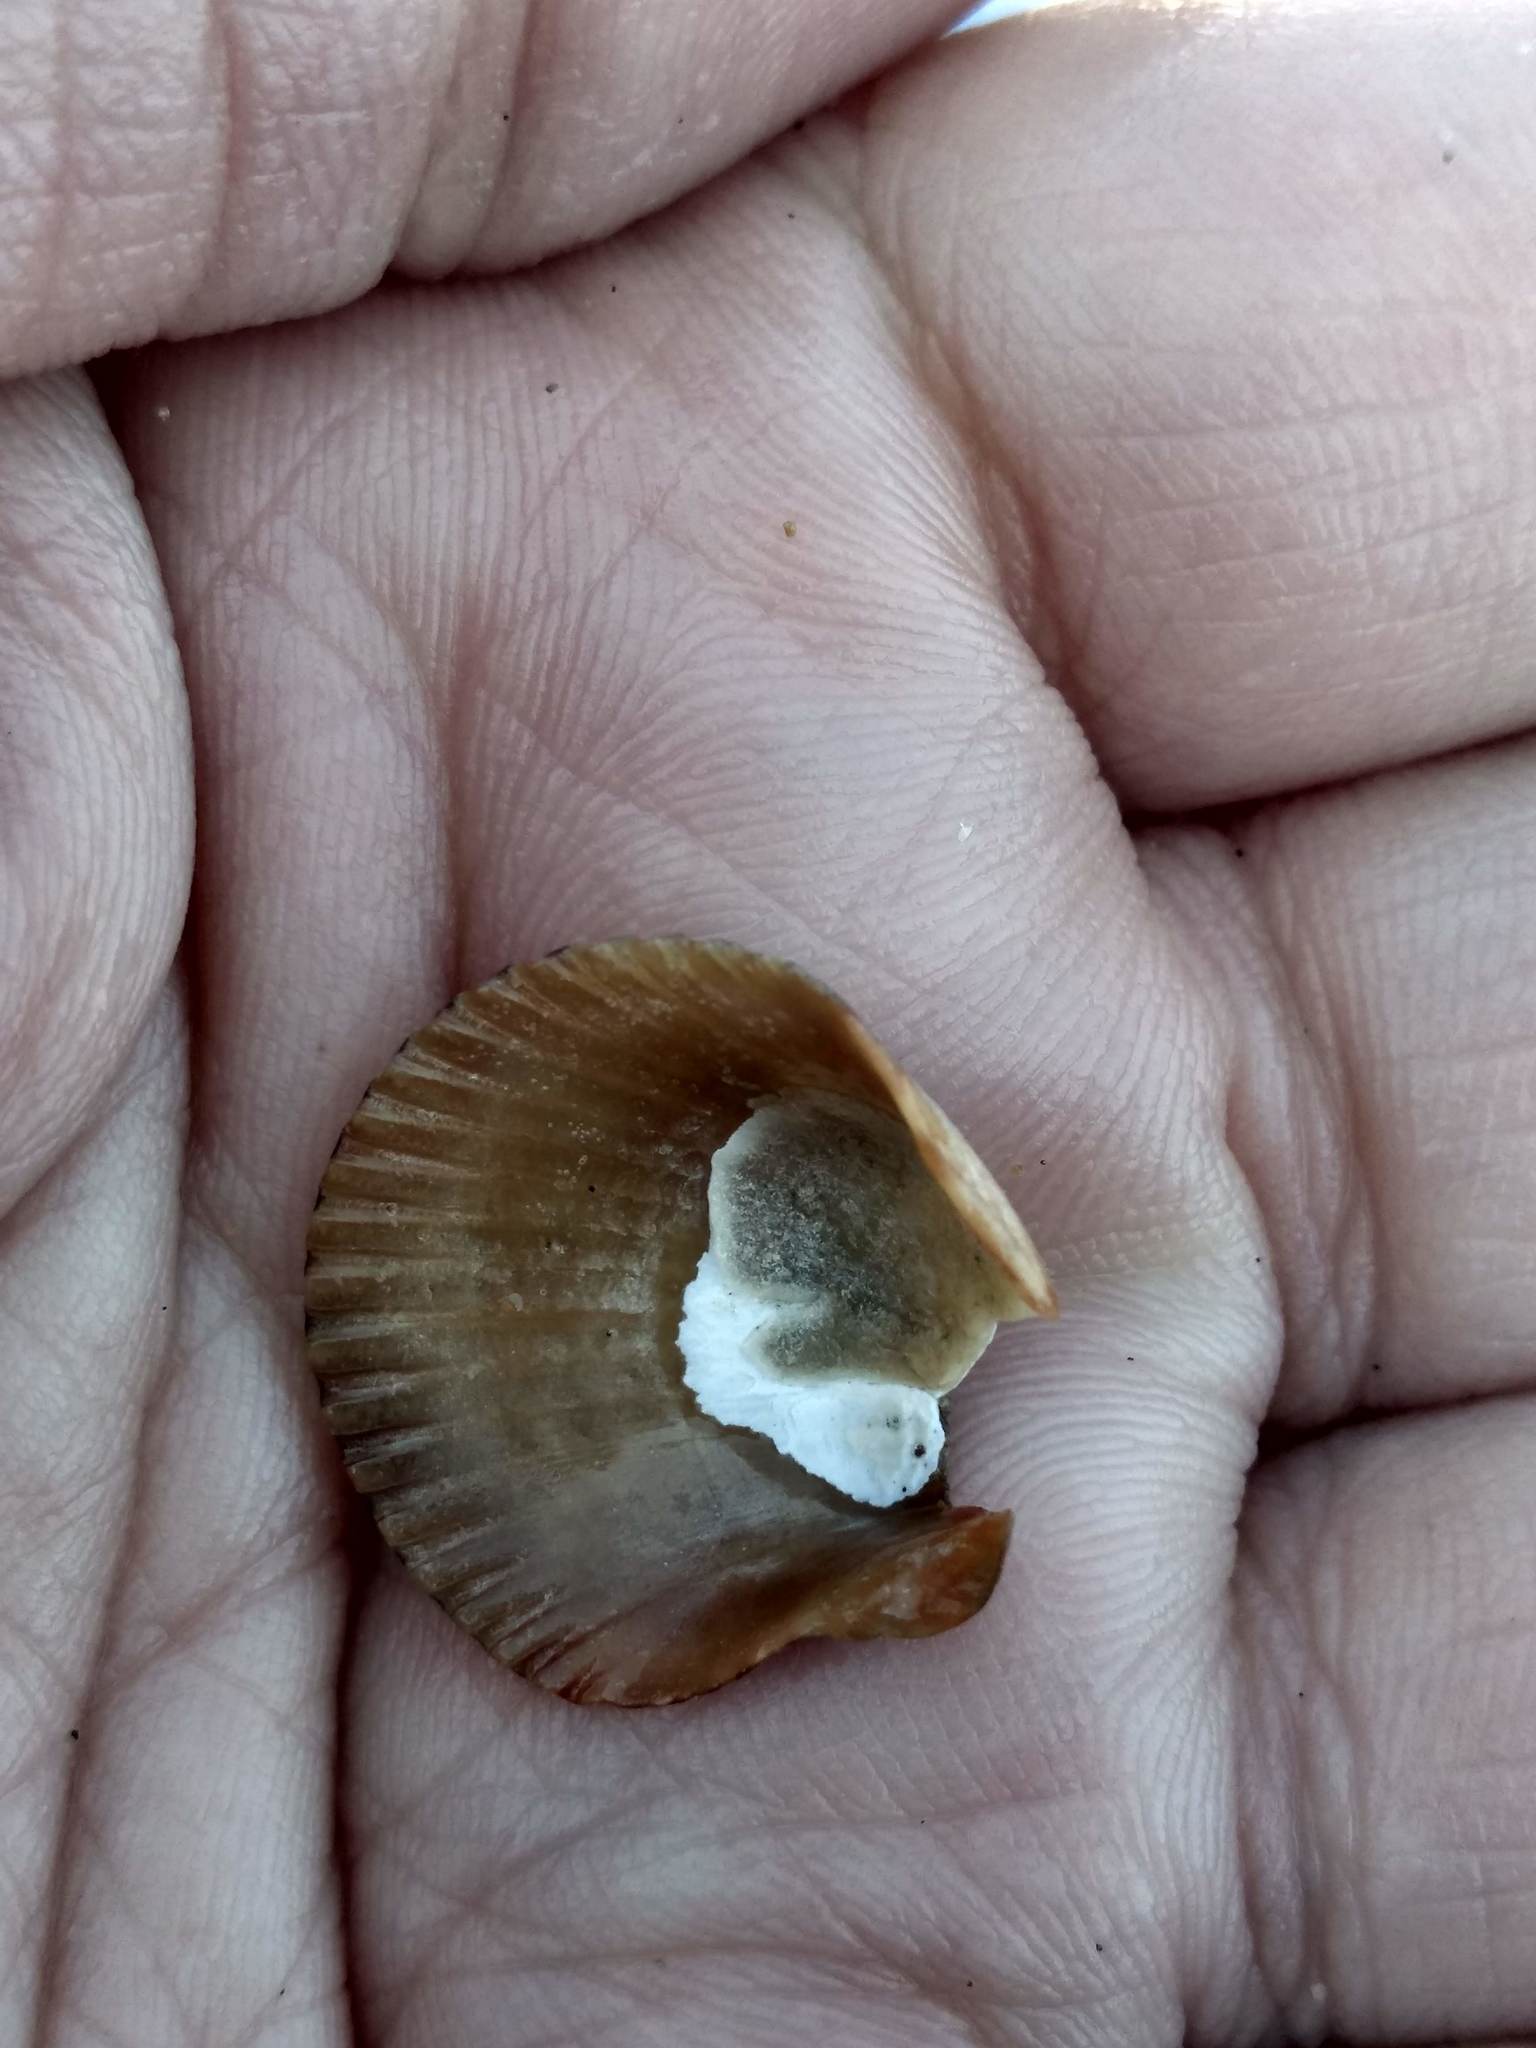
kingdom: Animalia
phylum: Mollusca
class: Bivalvia
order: Pectinida
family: Pectinidae
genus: Argopecten
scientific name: Argopecten ventricosus
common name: Catarina scallop
